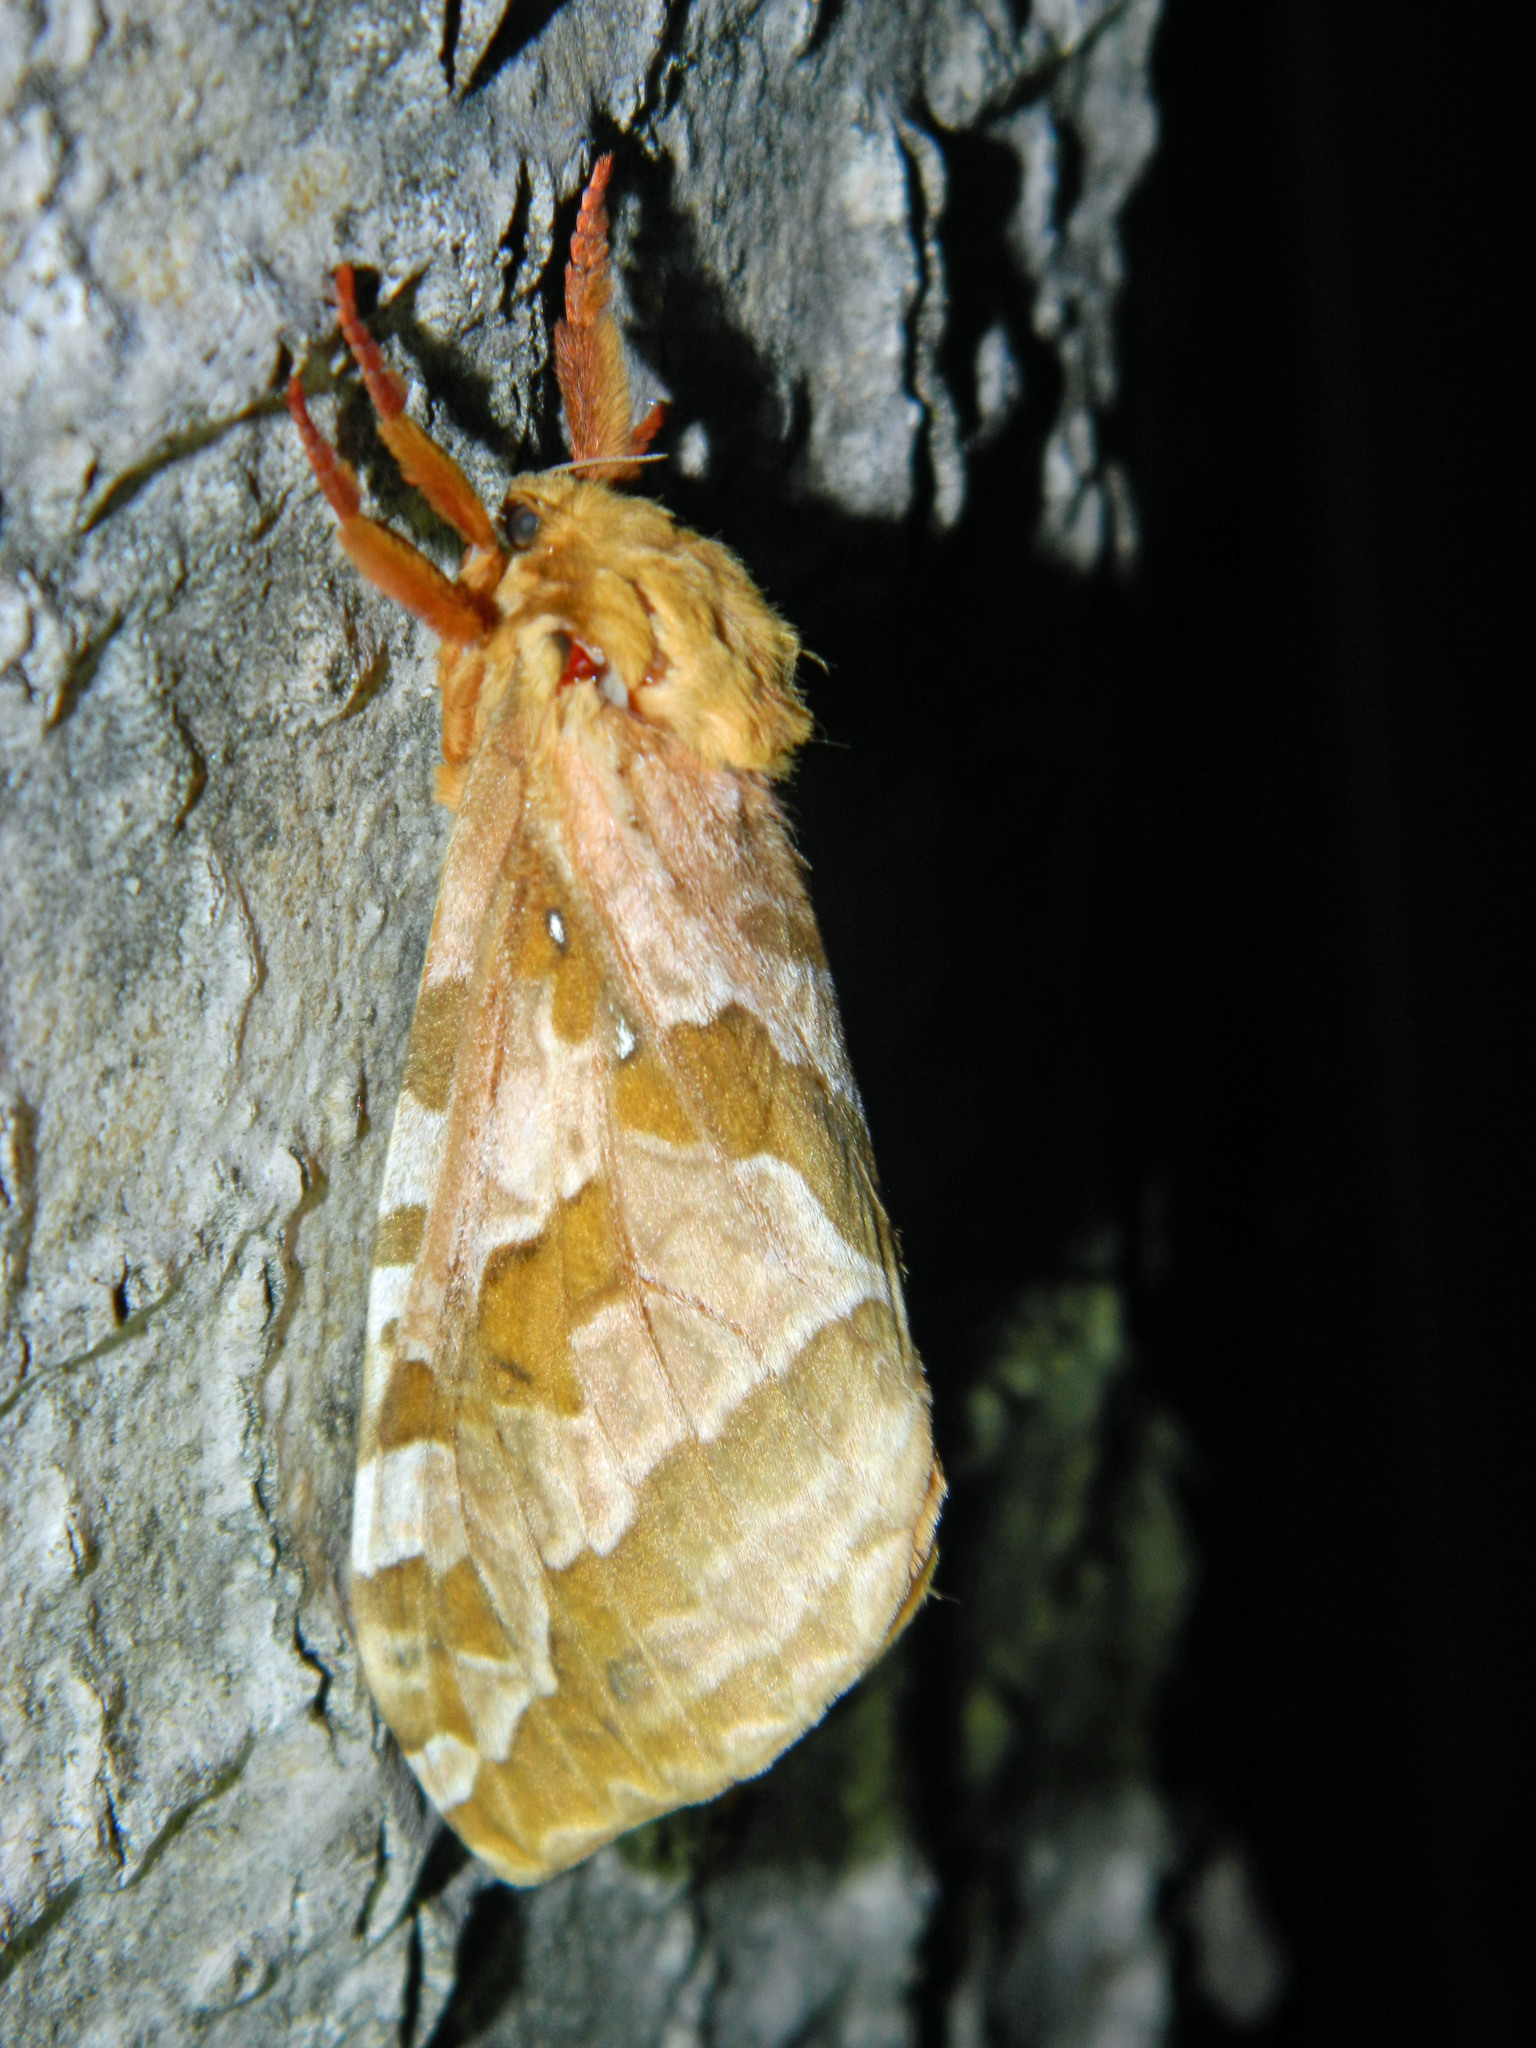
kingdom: Animalia
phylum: Arthropoda
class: Insecta
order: Lepidoptera
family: Hepialidae
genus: Sthenopis
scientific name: Sthenopis purpurascens
